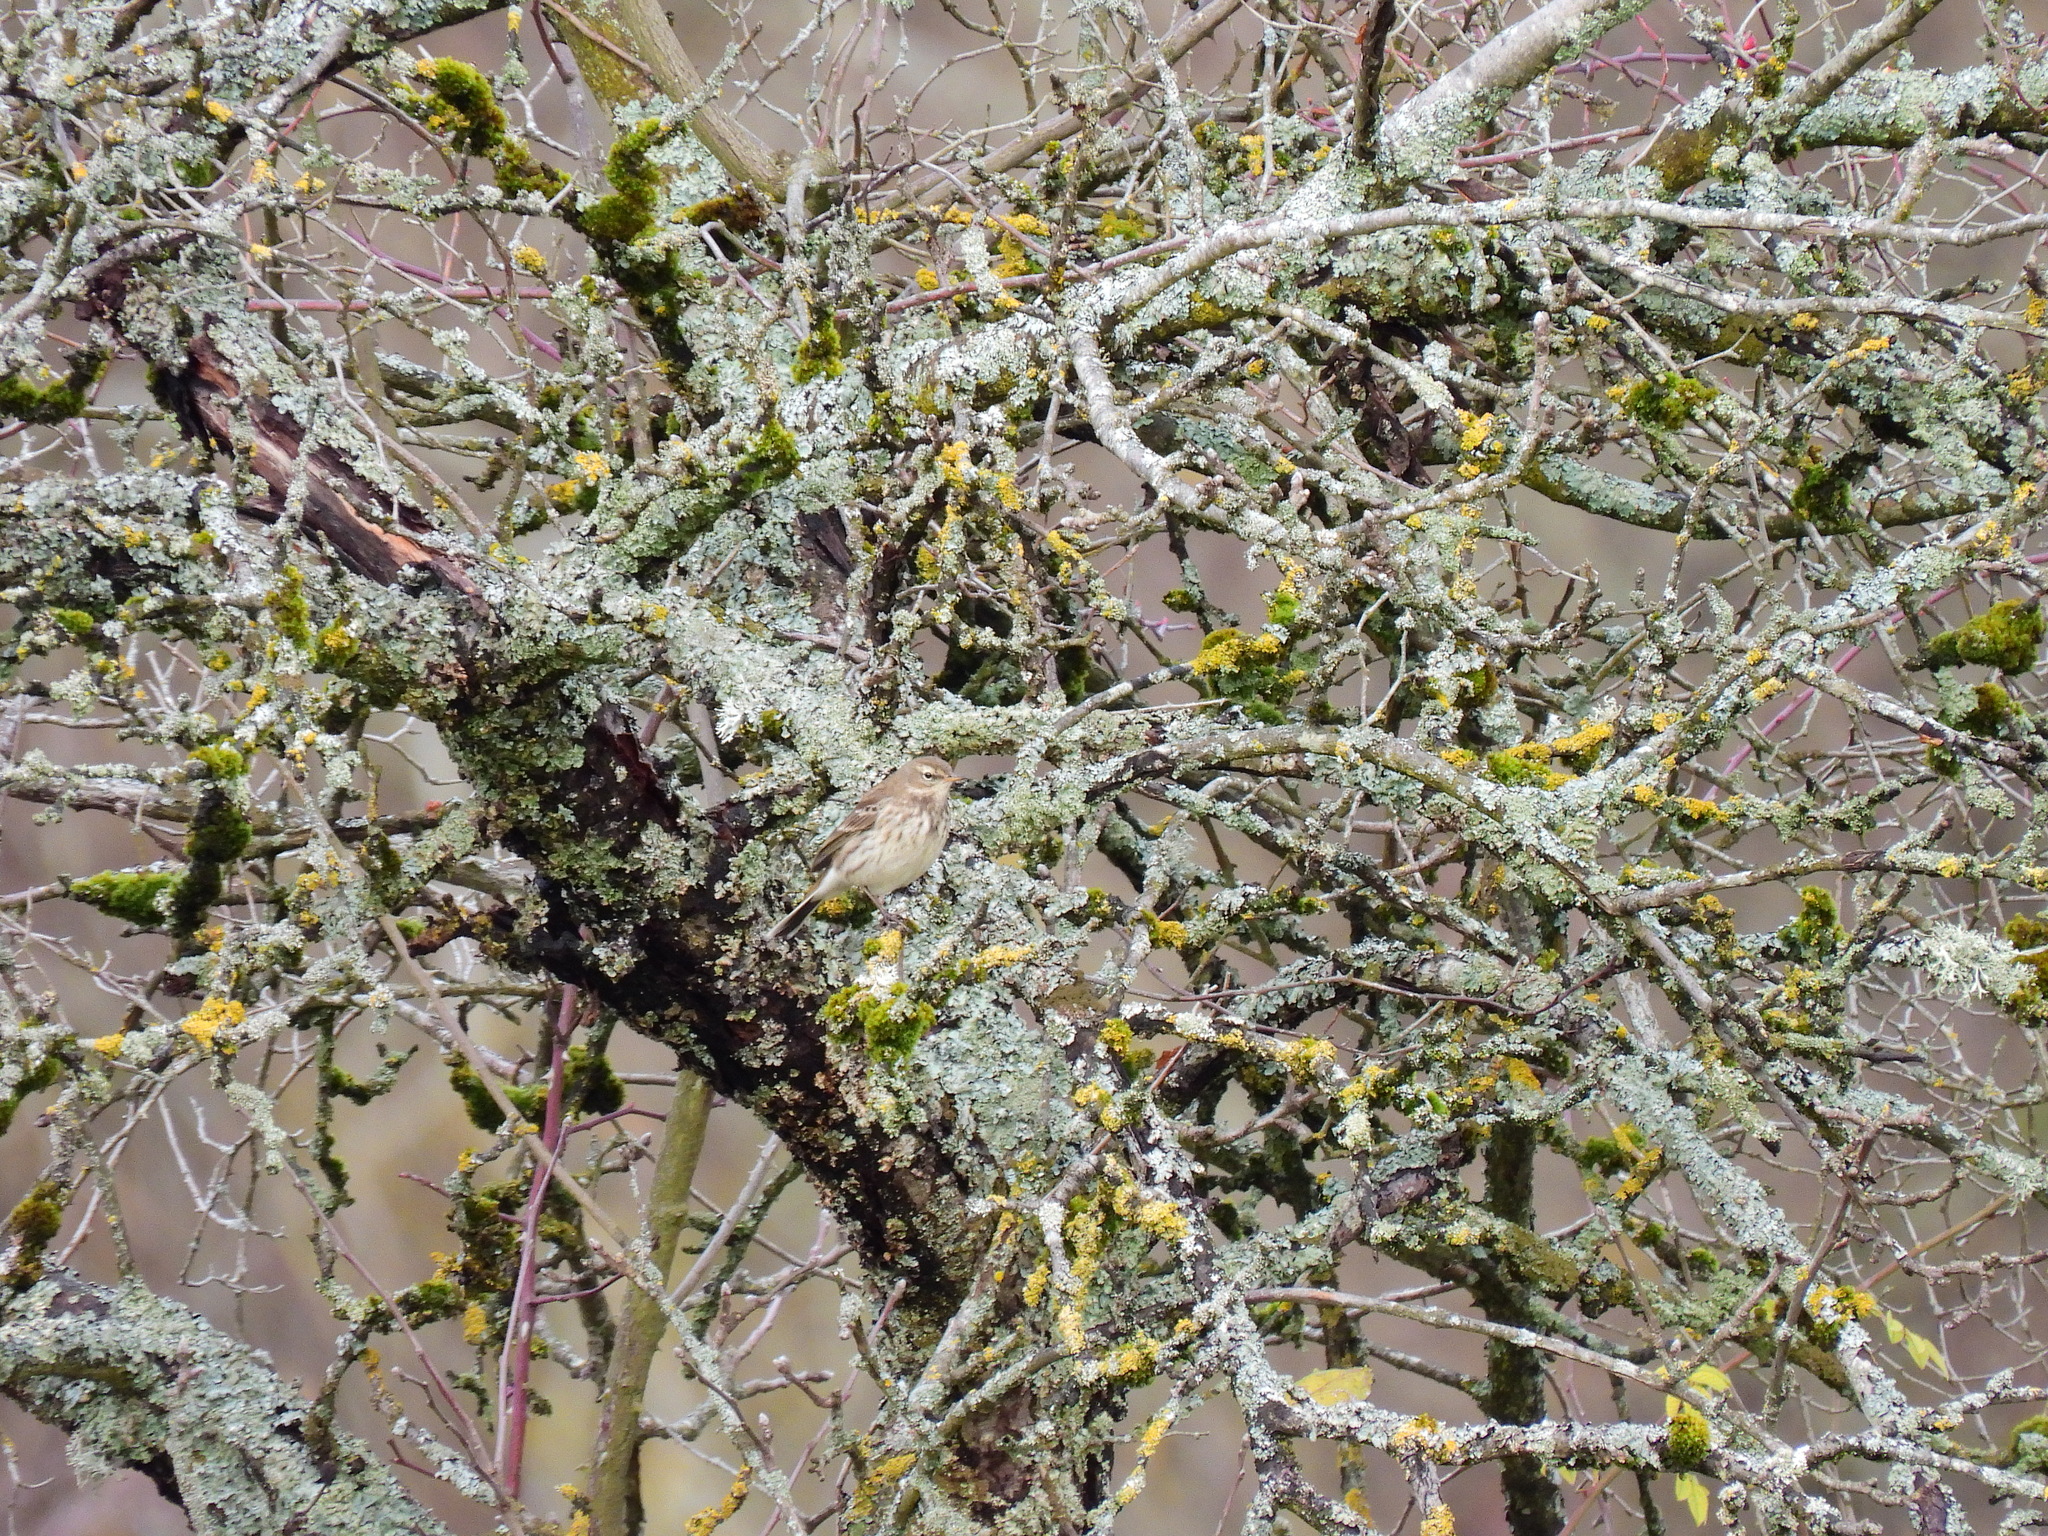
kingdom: Animalia
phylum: Chordata
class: Aves
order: Passeriformes
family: Motacillidae
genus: Anthus
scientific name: Anthus spinoletta
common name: Water pipit
